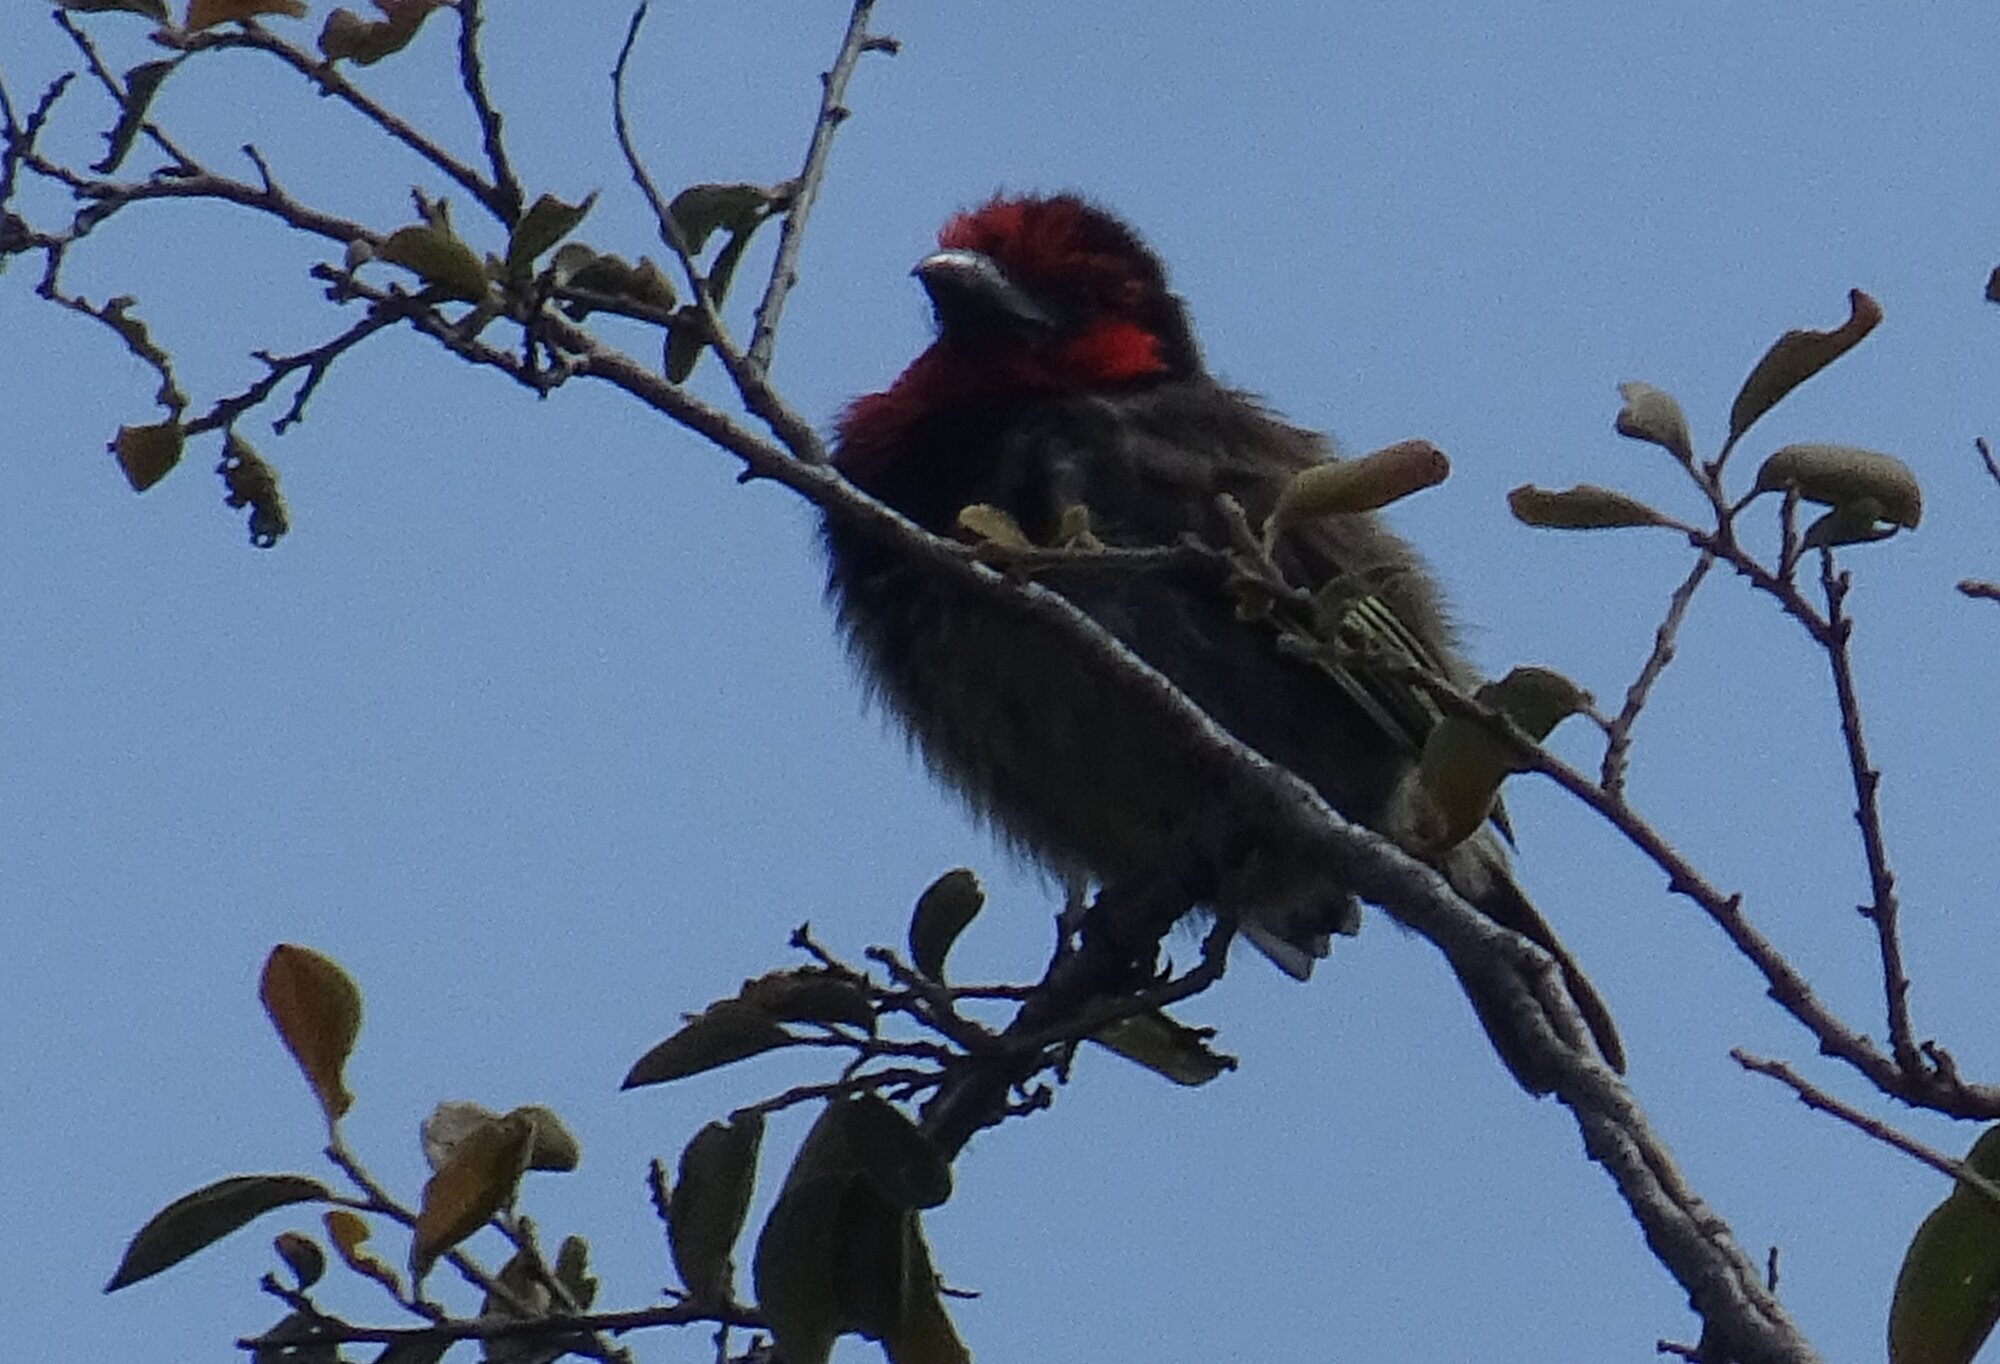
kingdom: Animalia
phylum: Chordata
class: Aves
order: Piciformes
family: Lybiidae
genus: Lybius
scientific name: Lybius torquatus
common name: Black-collared barbet
